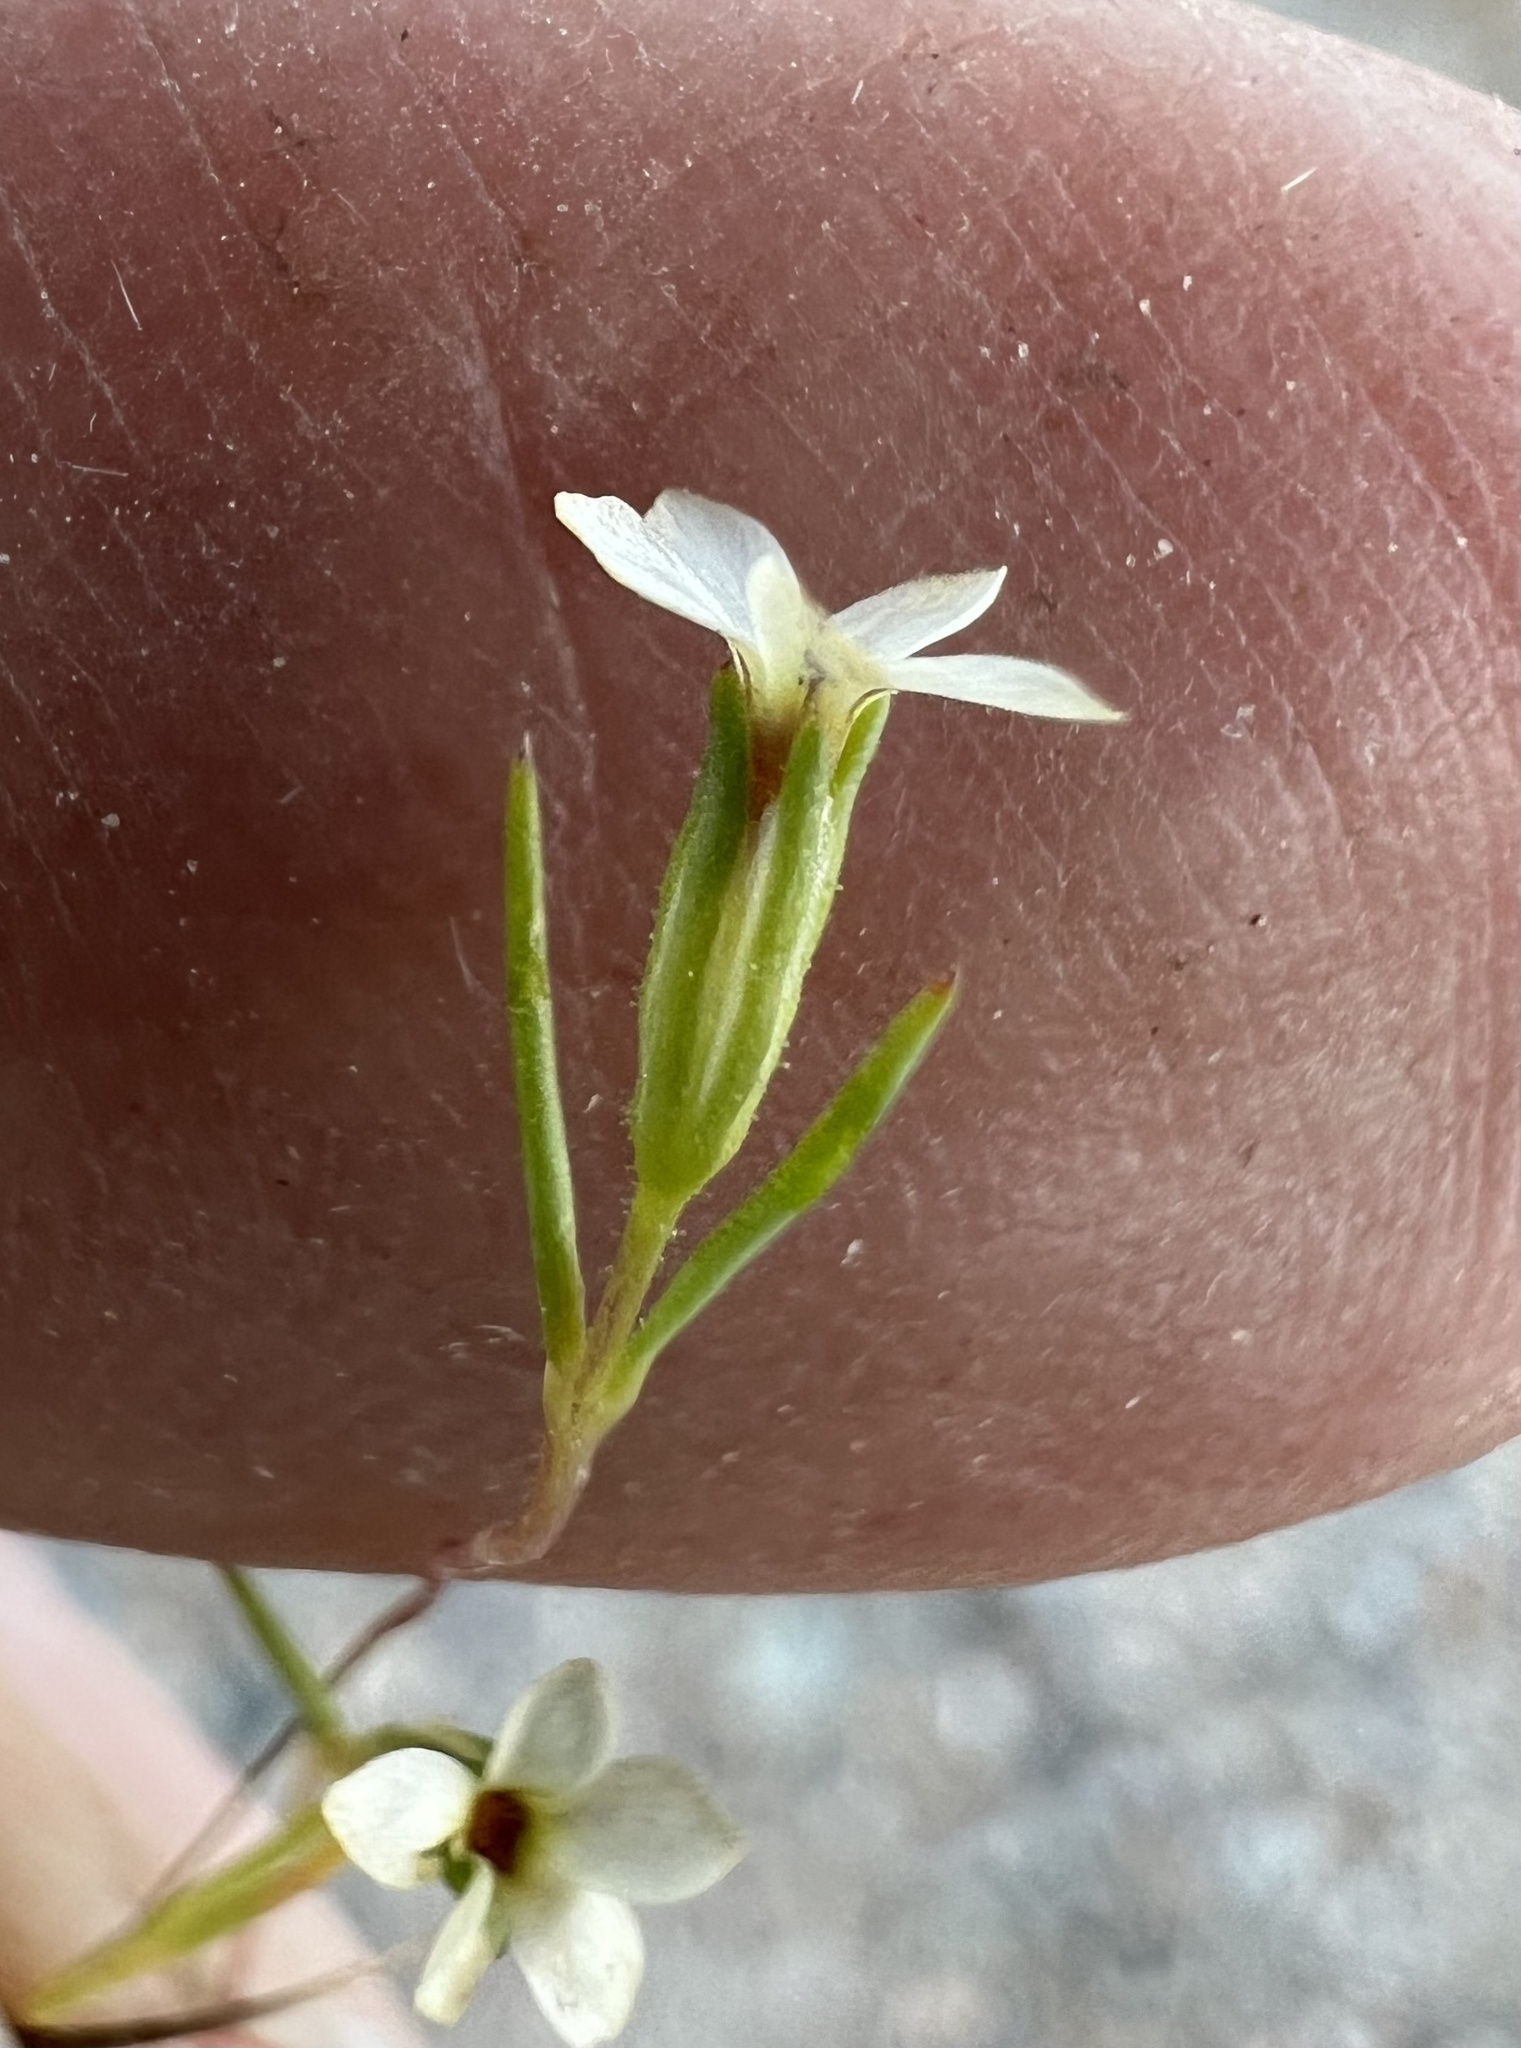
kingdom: Plantae
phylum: Tracheophyta
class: Magnoliopsida
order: Ericales
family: Polemoniaceae
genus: Linanthus
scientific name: Linanthus jonesii
